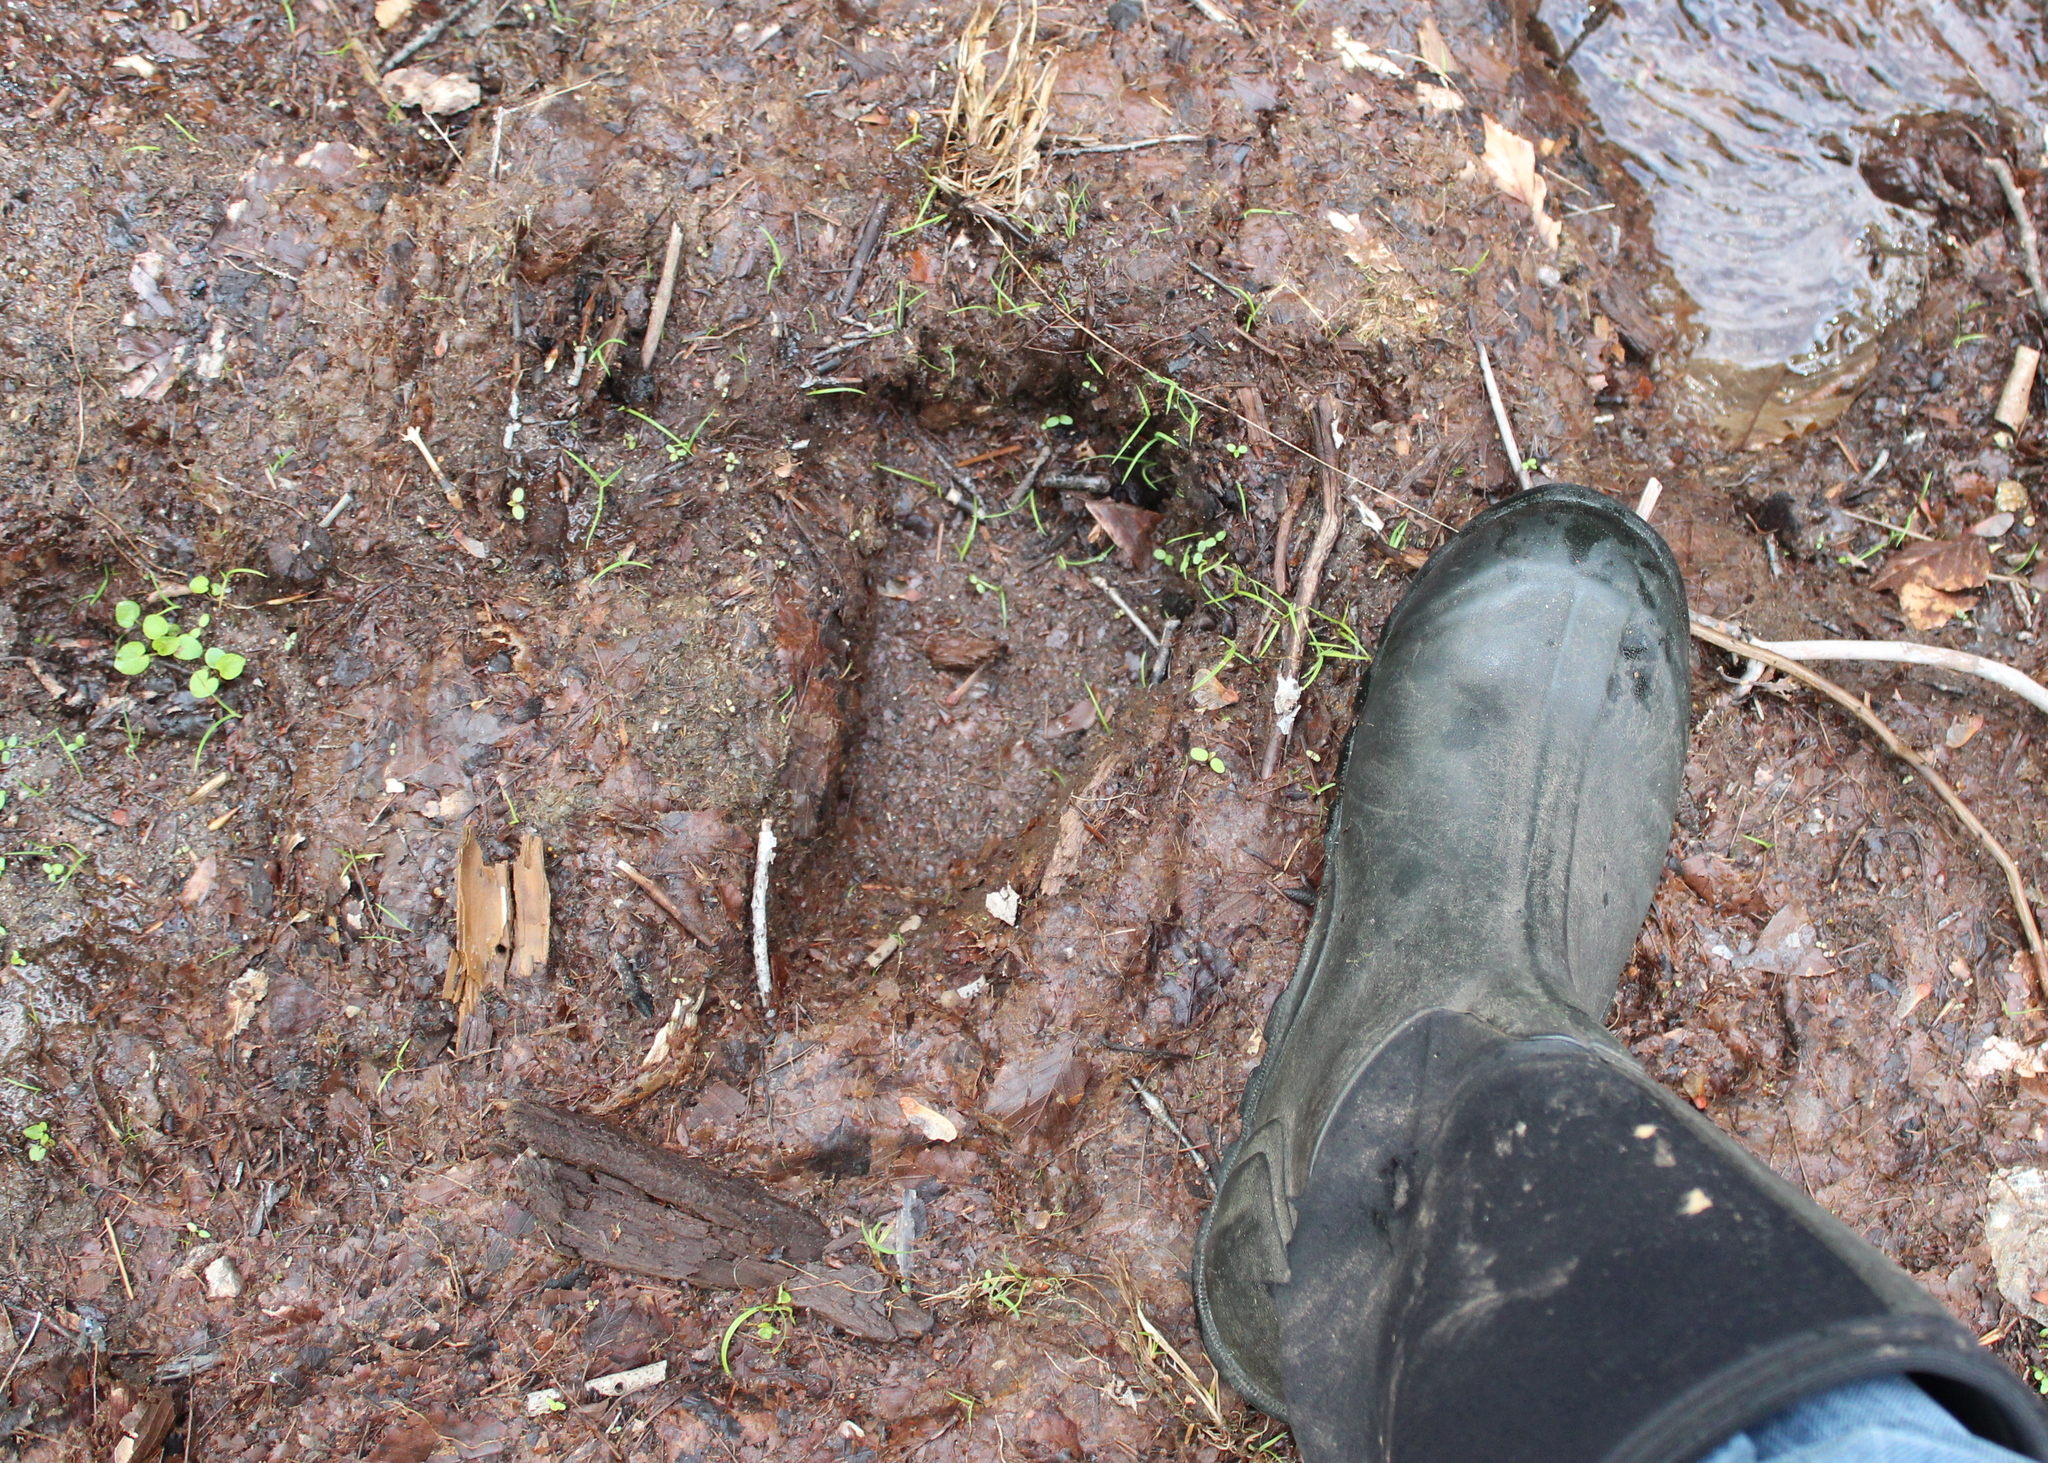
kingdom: Animalia
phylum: Chordata
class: Mammalia
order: Carnivora
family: Ursidae
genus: Ursus
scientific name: Ursus americanus
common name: American black bear
